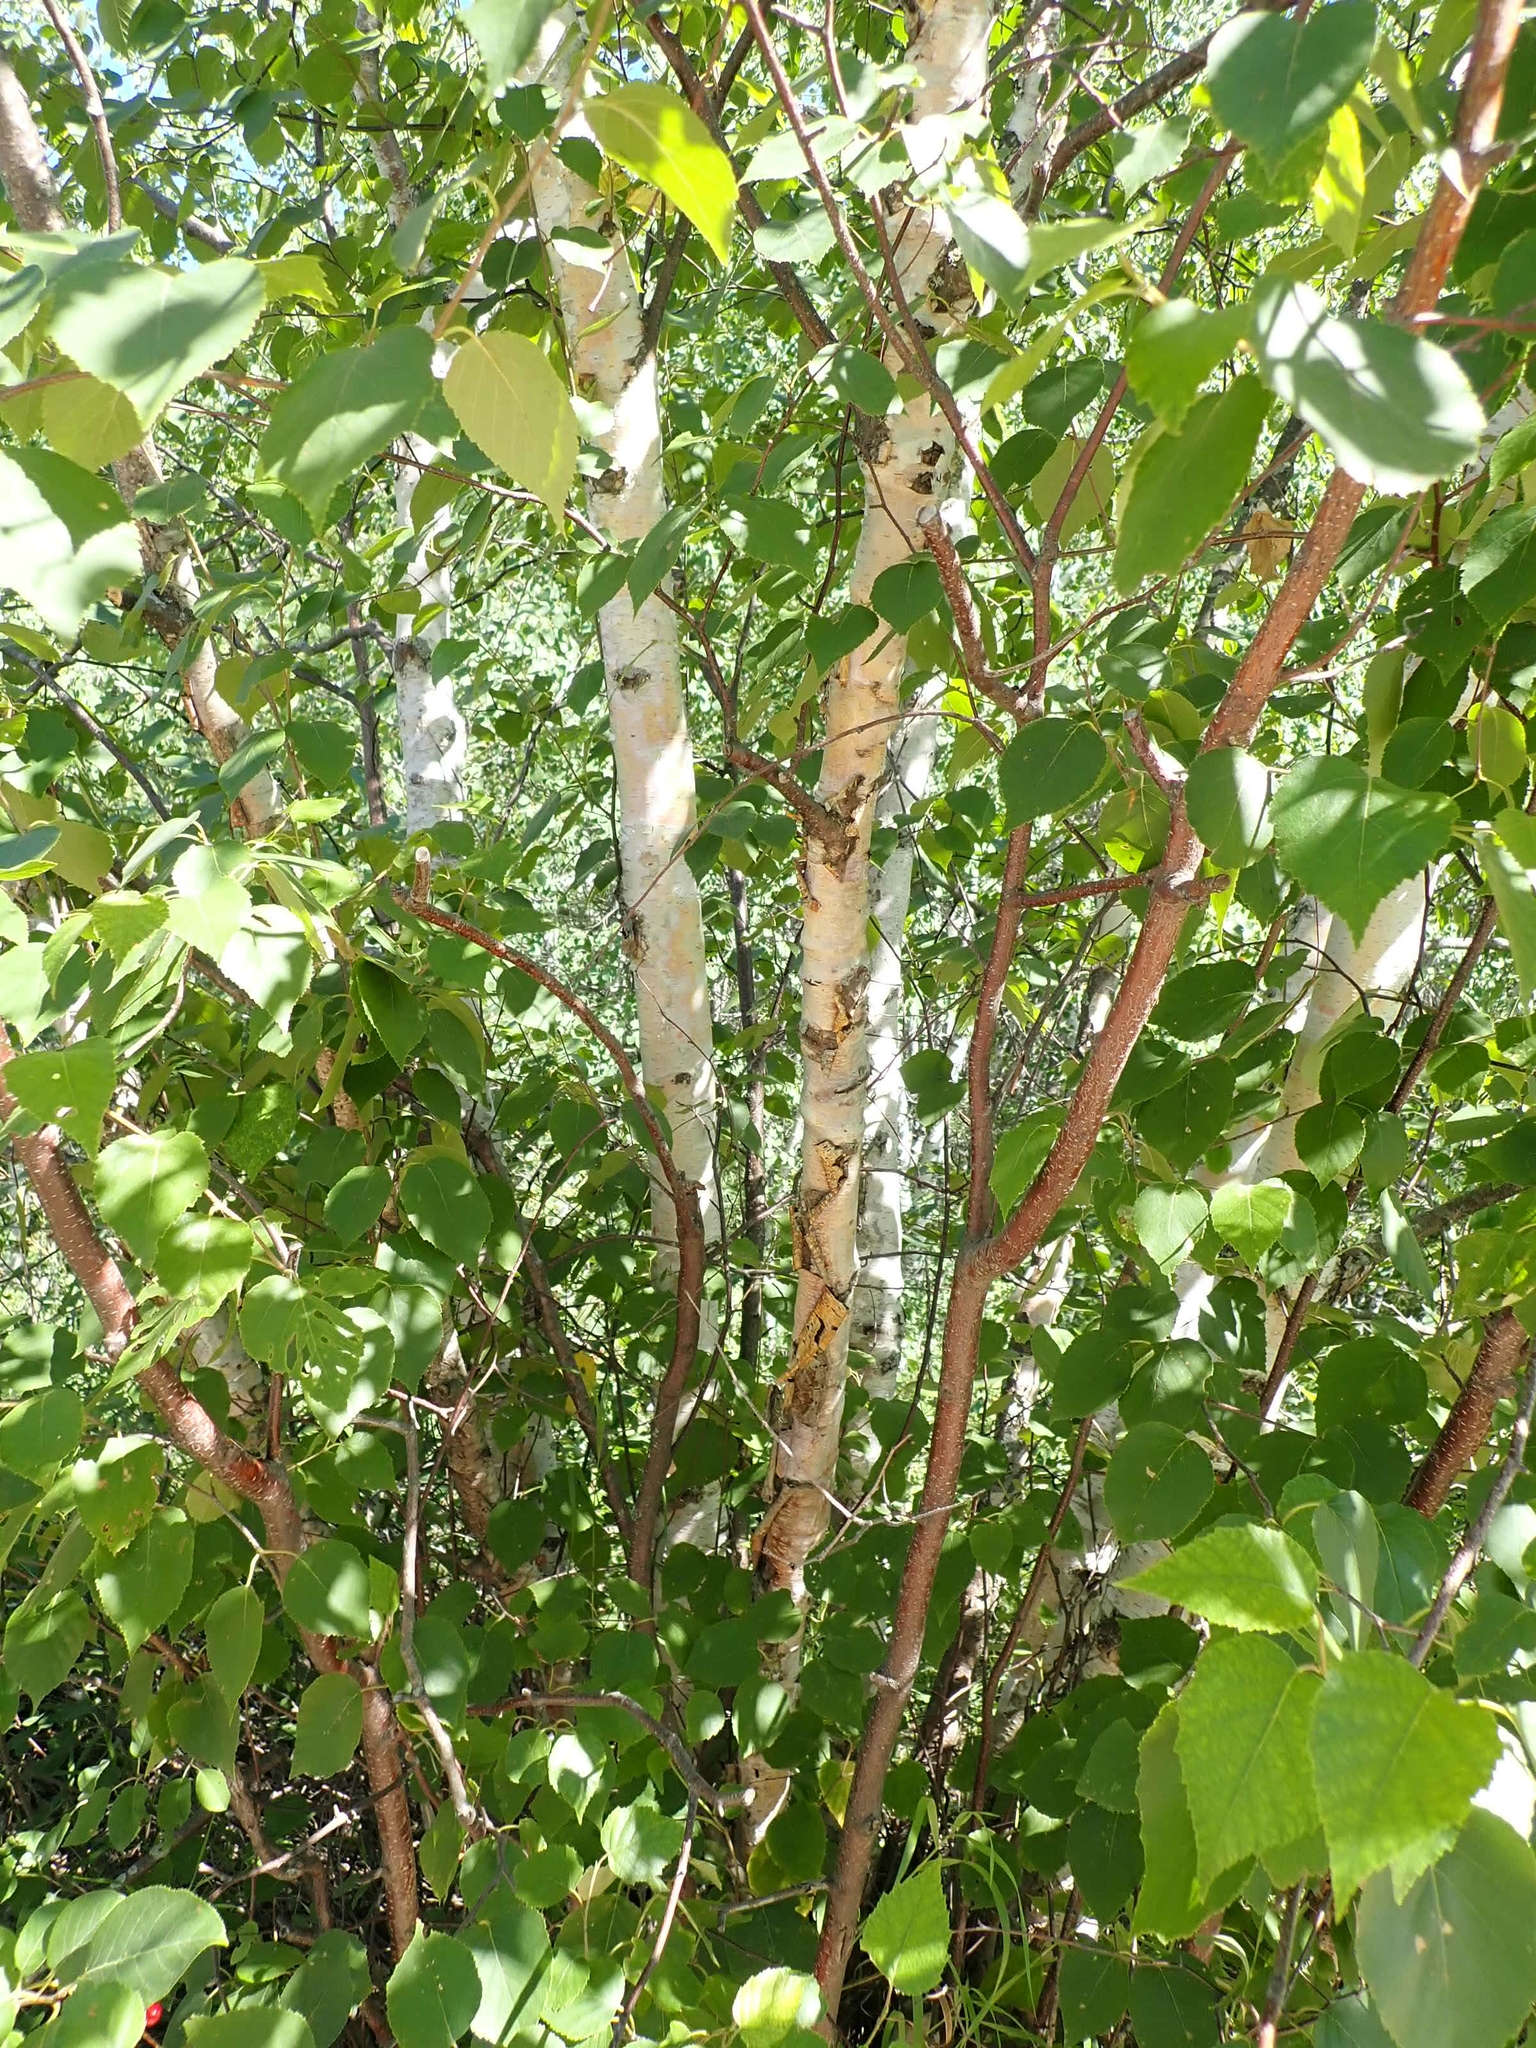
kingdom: Plantae
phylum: Tracheophyta
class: Magnoliopsida
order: Fagales
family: Betulaceae
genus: Betula
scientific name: Betula papyrifera
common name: Paper birch
